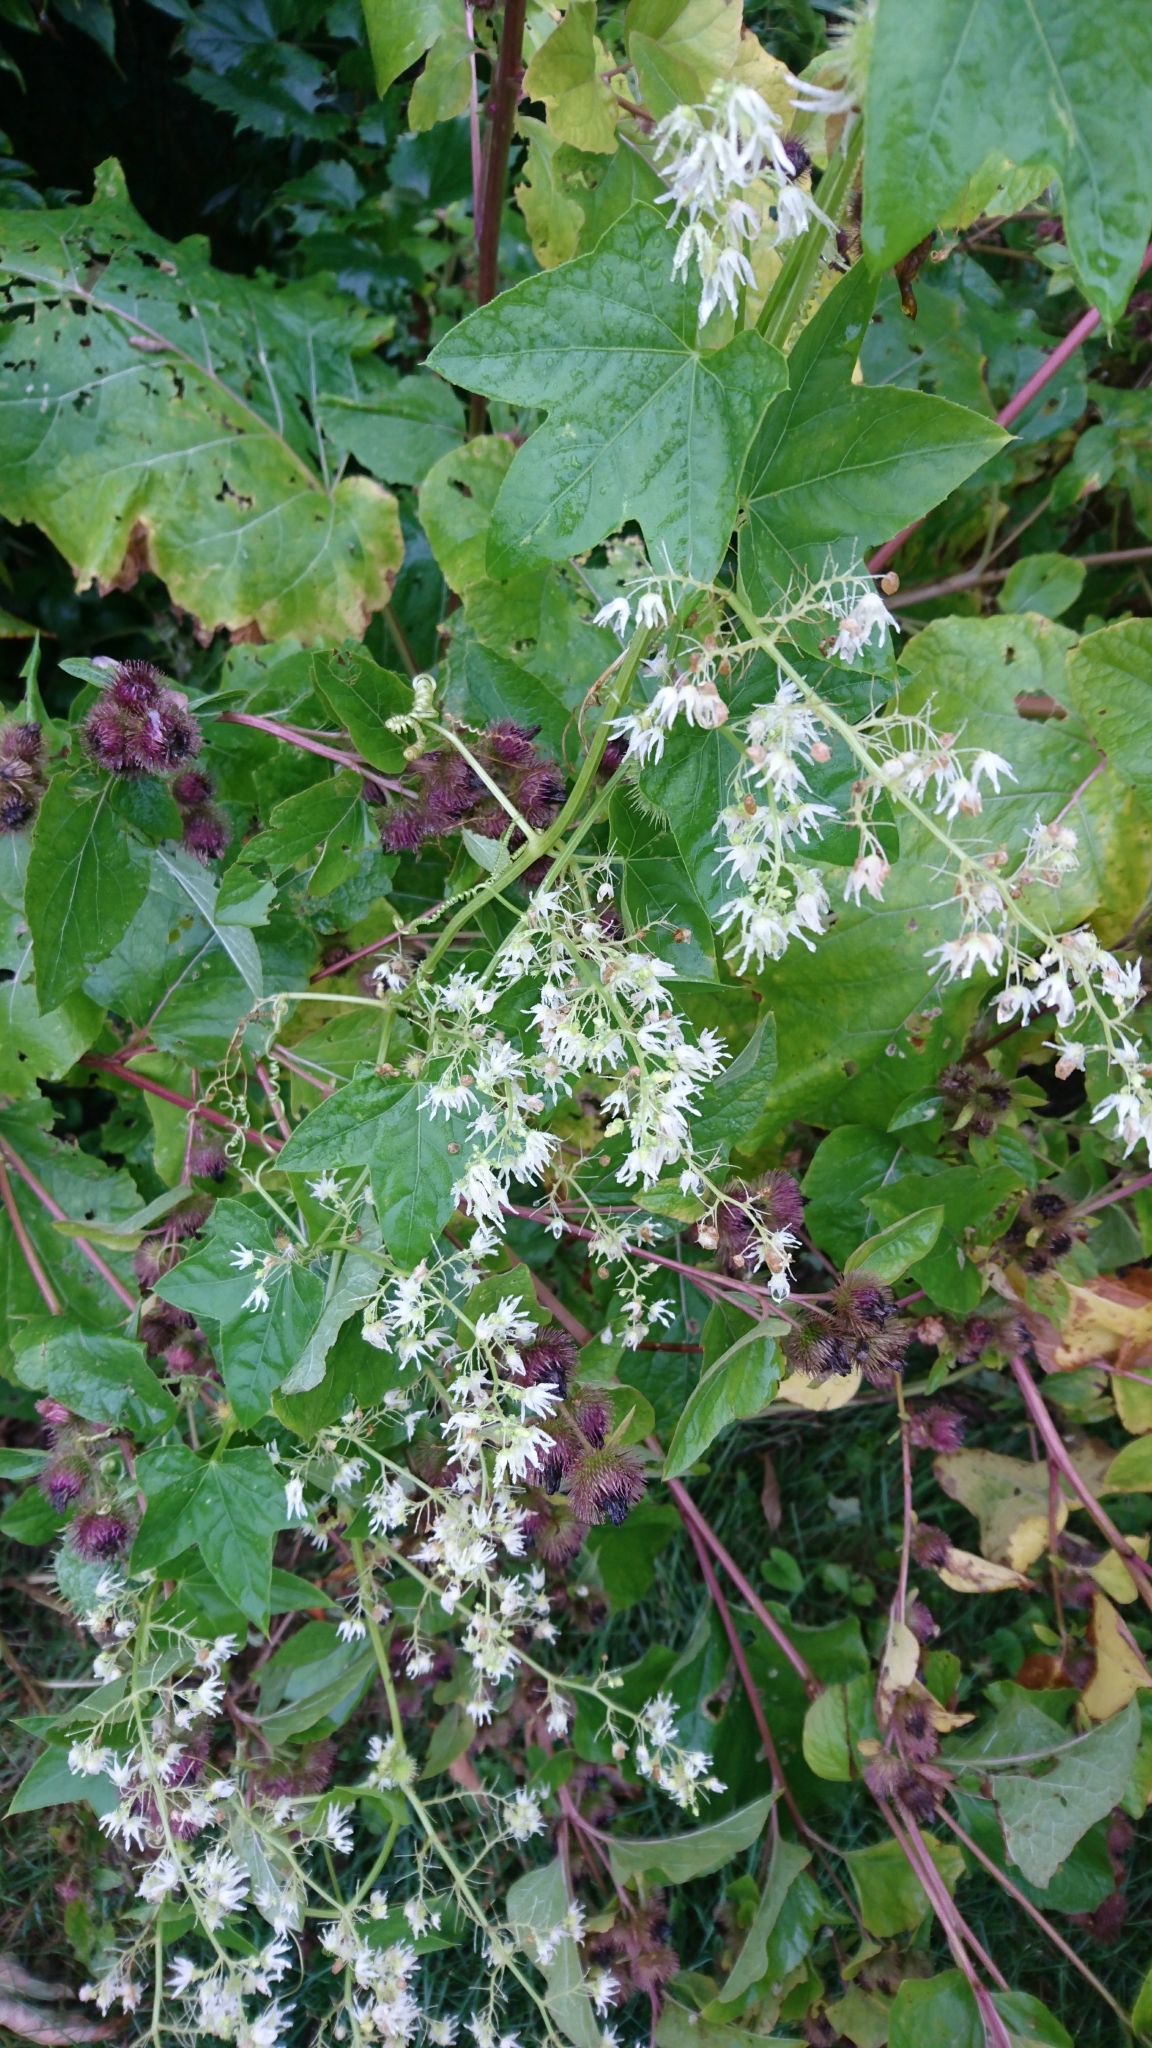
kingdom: Plantae
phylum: Tracheophyta
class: Magnoliopsida
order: Cucurbitales
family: Cucurbitaceae
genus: Echinocystis
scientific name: Echinocystis lobata
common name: Wild cucumber
